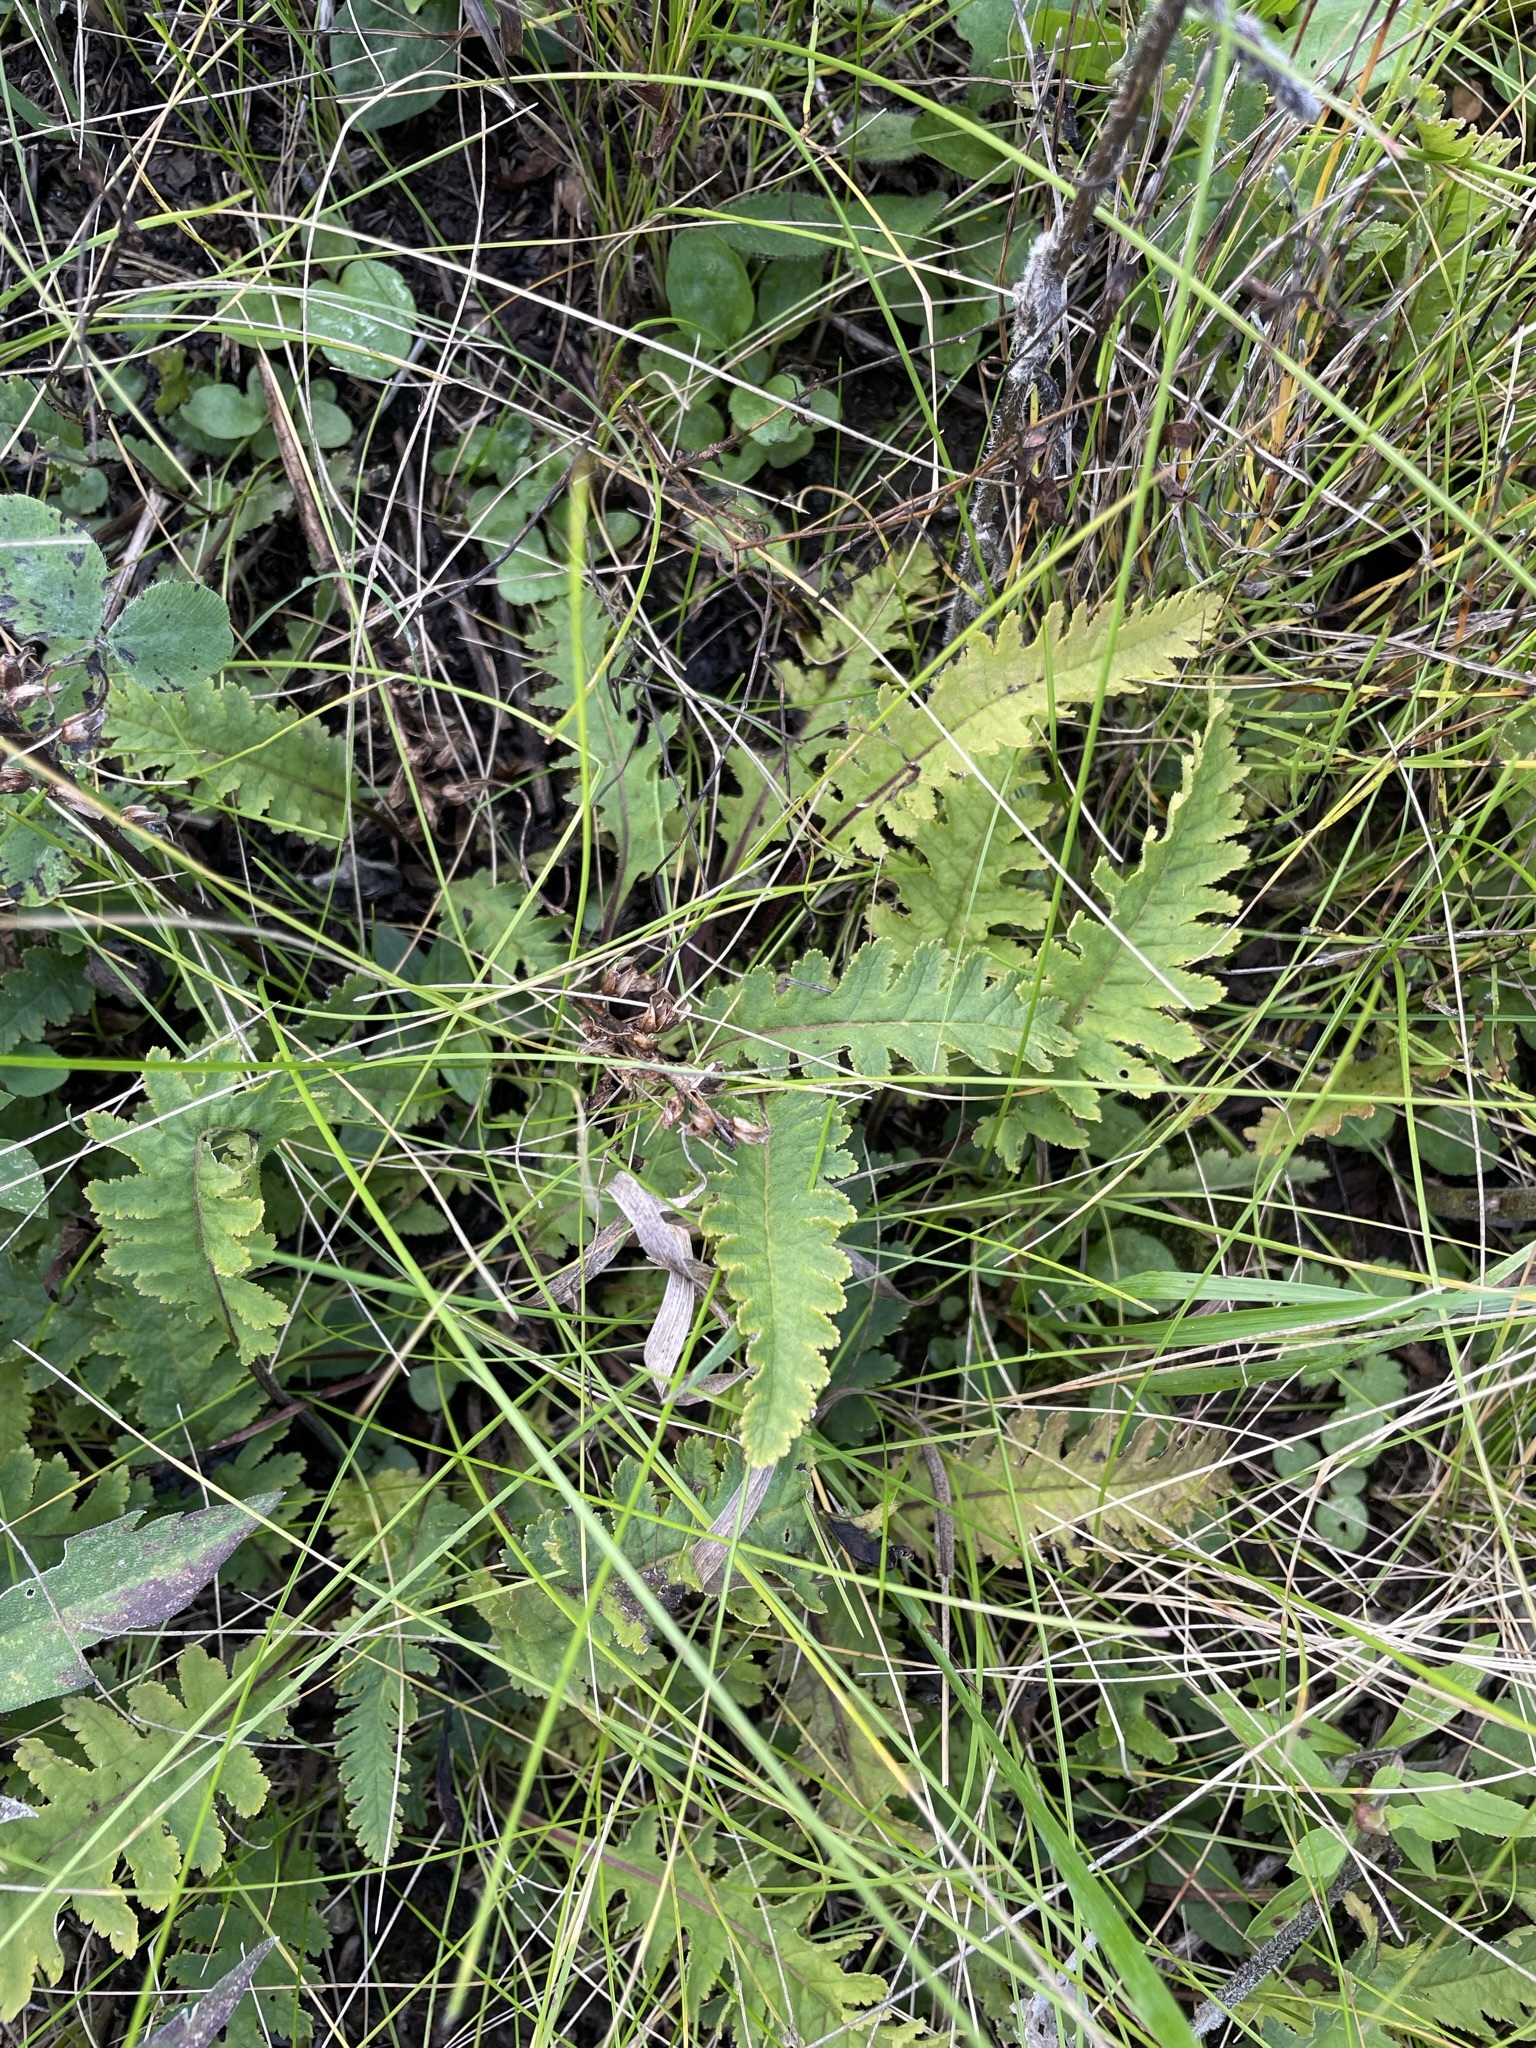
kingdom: Plantae
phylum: Tracheophyta
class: Magnoliopsida
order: Lamiales
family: Orobanchaceae
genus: Pedicularis
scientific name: Pedicularis canadensis
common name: Early lousewort
